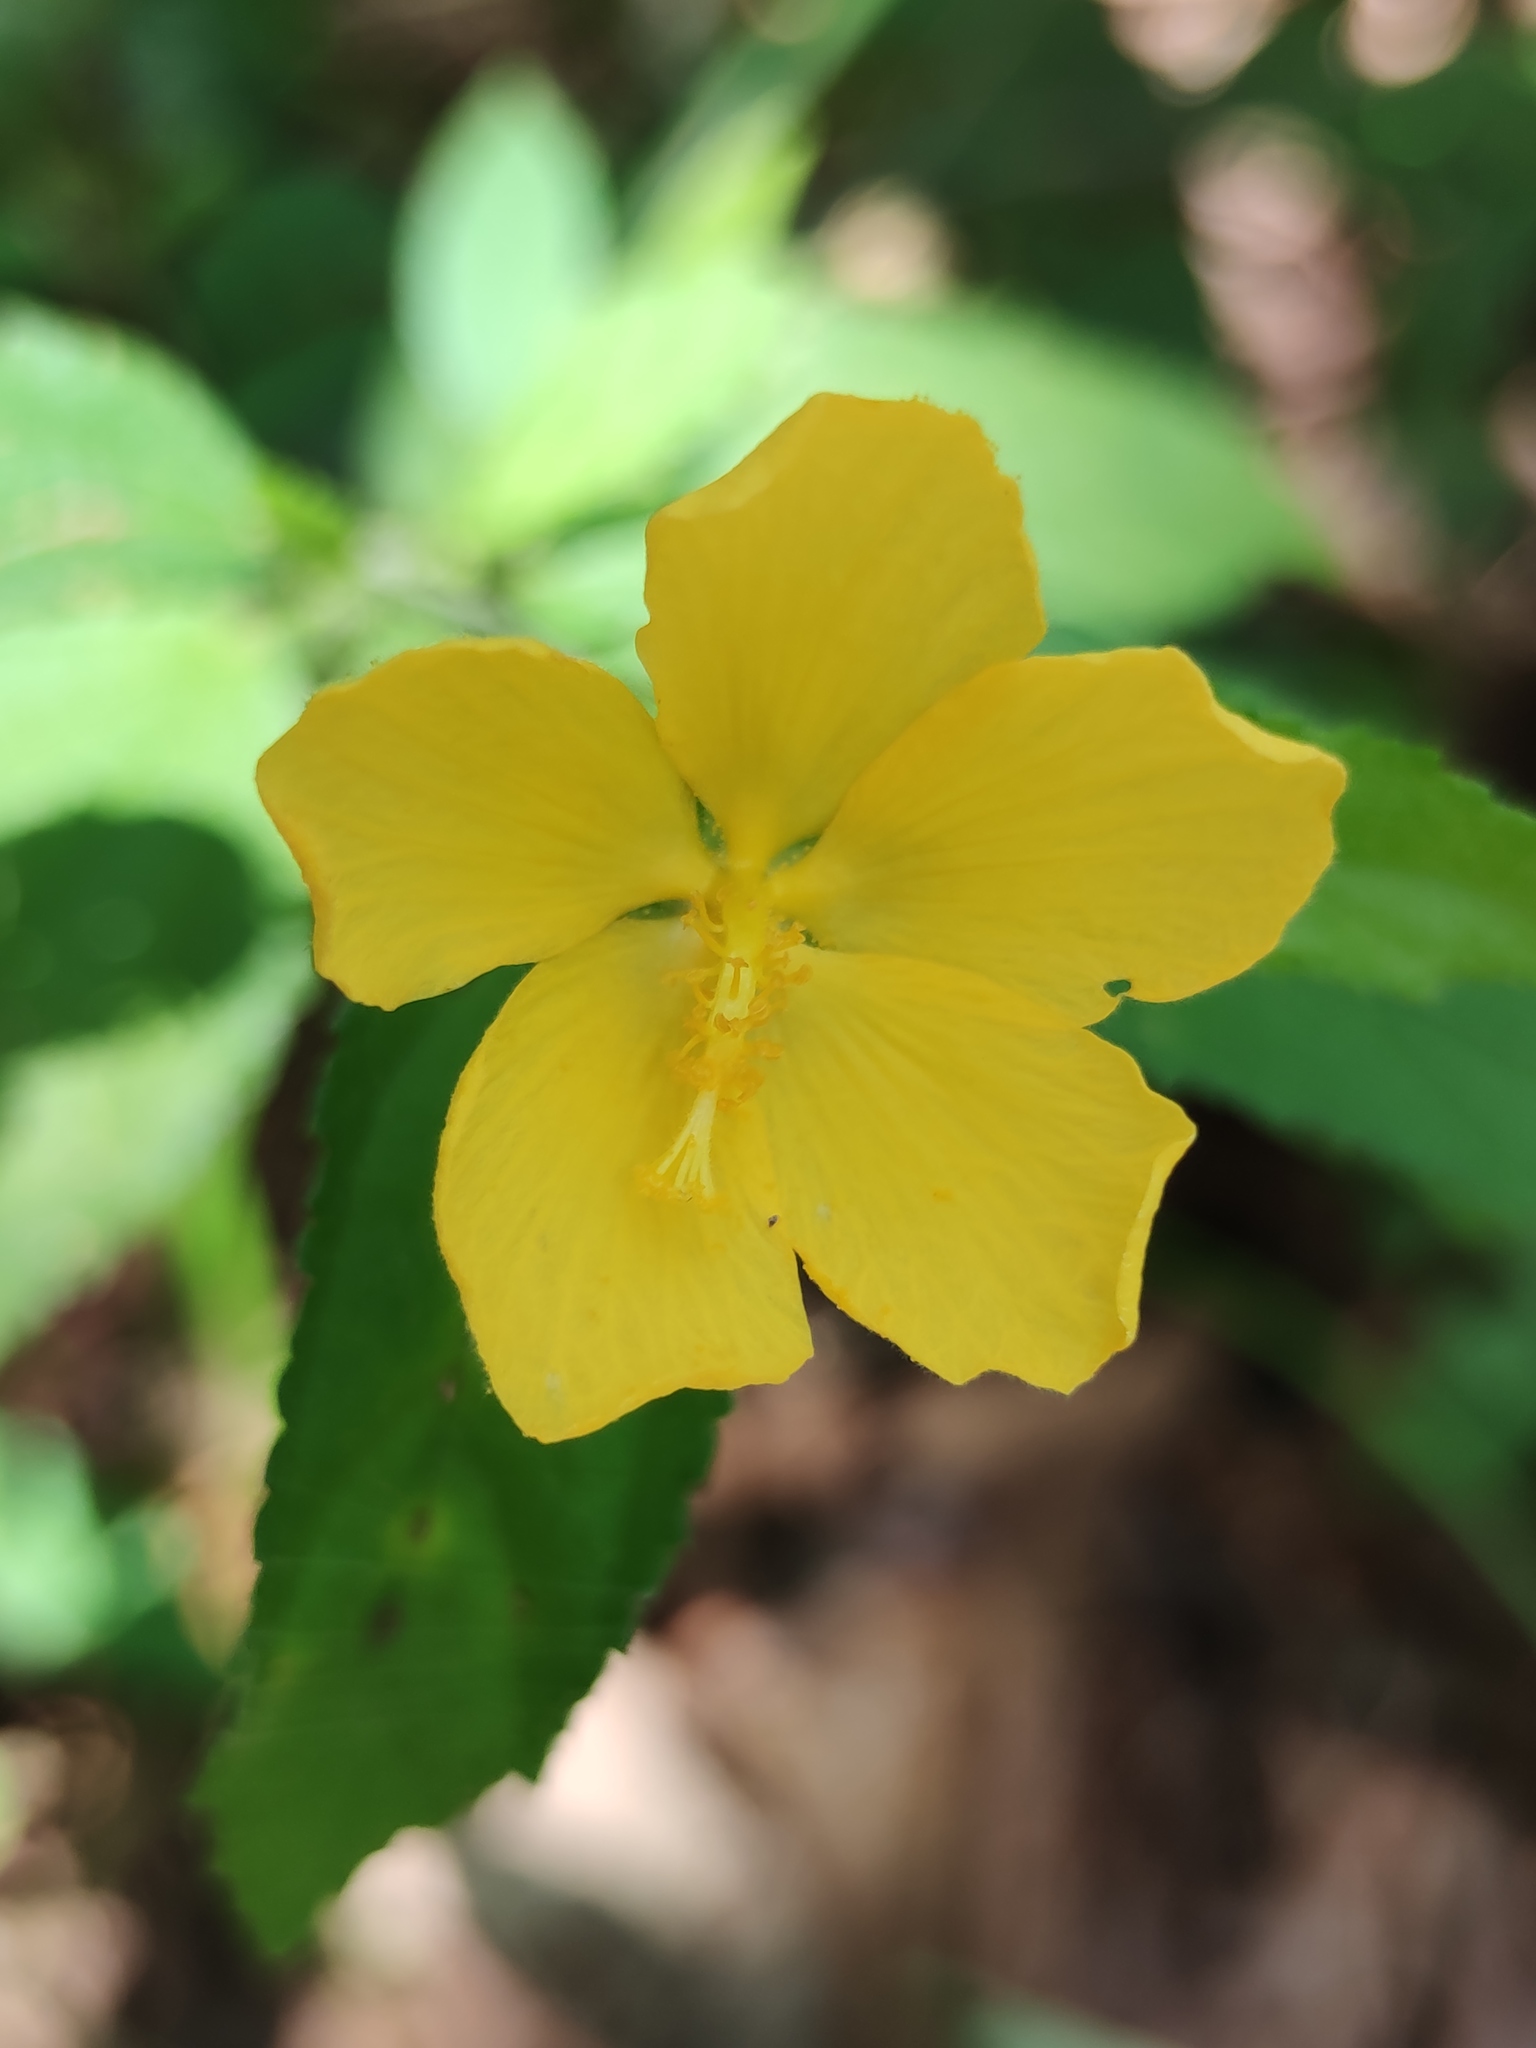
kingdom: Plantae
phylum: Tracheophyta
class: Magnoliopsida
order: Malvales
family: Malvaceae
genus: Pavonia
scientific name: Pavonia uniflora
